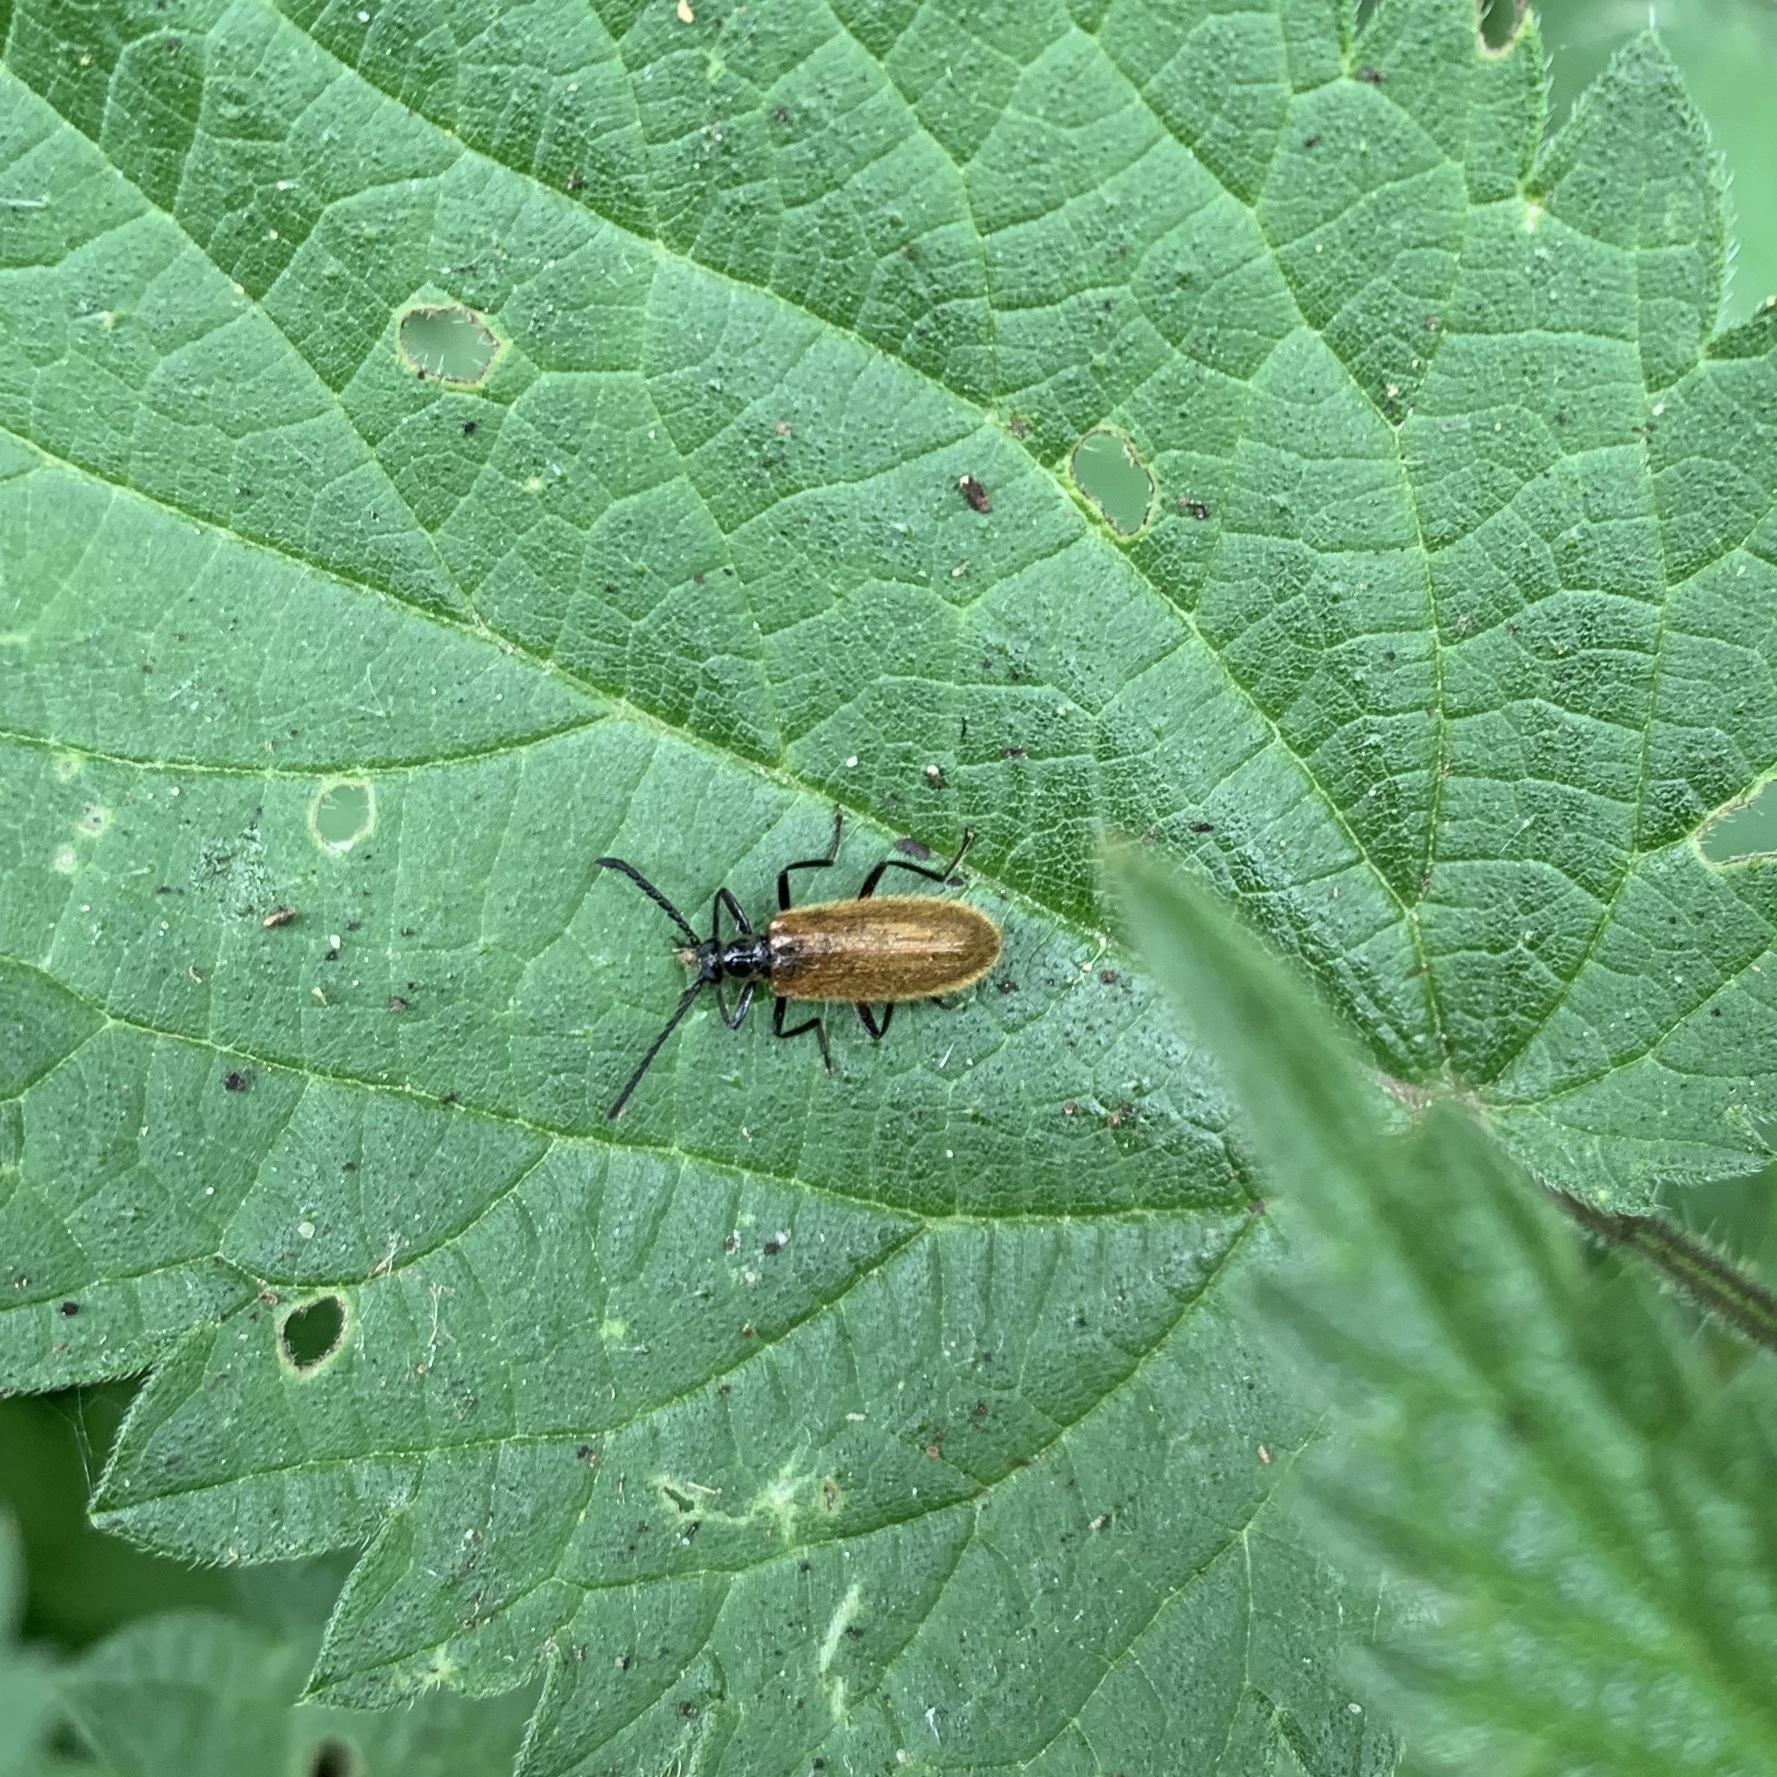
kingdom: Animalia
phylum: Arthropoda
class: Insecta
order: Coleoptera
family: Tenebrionidae
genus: Lagria
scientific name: Lagria hirta
